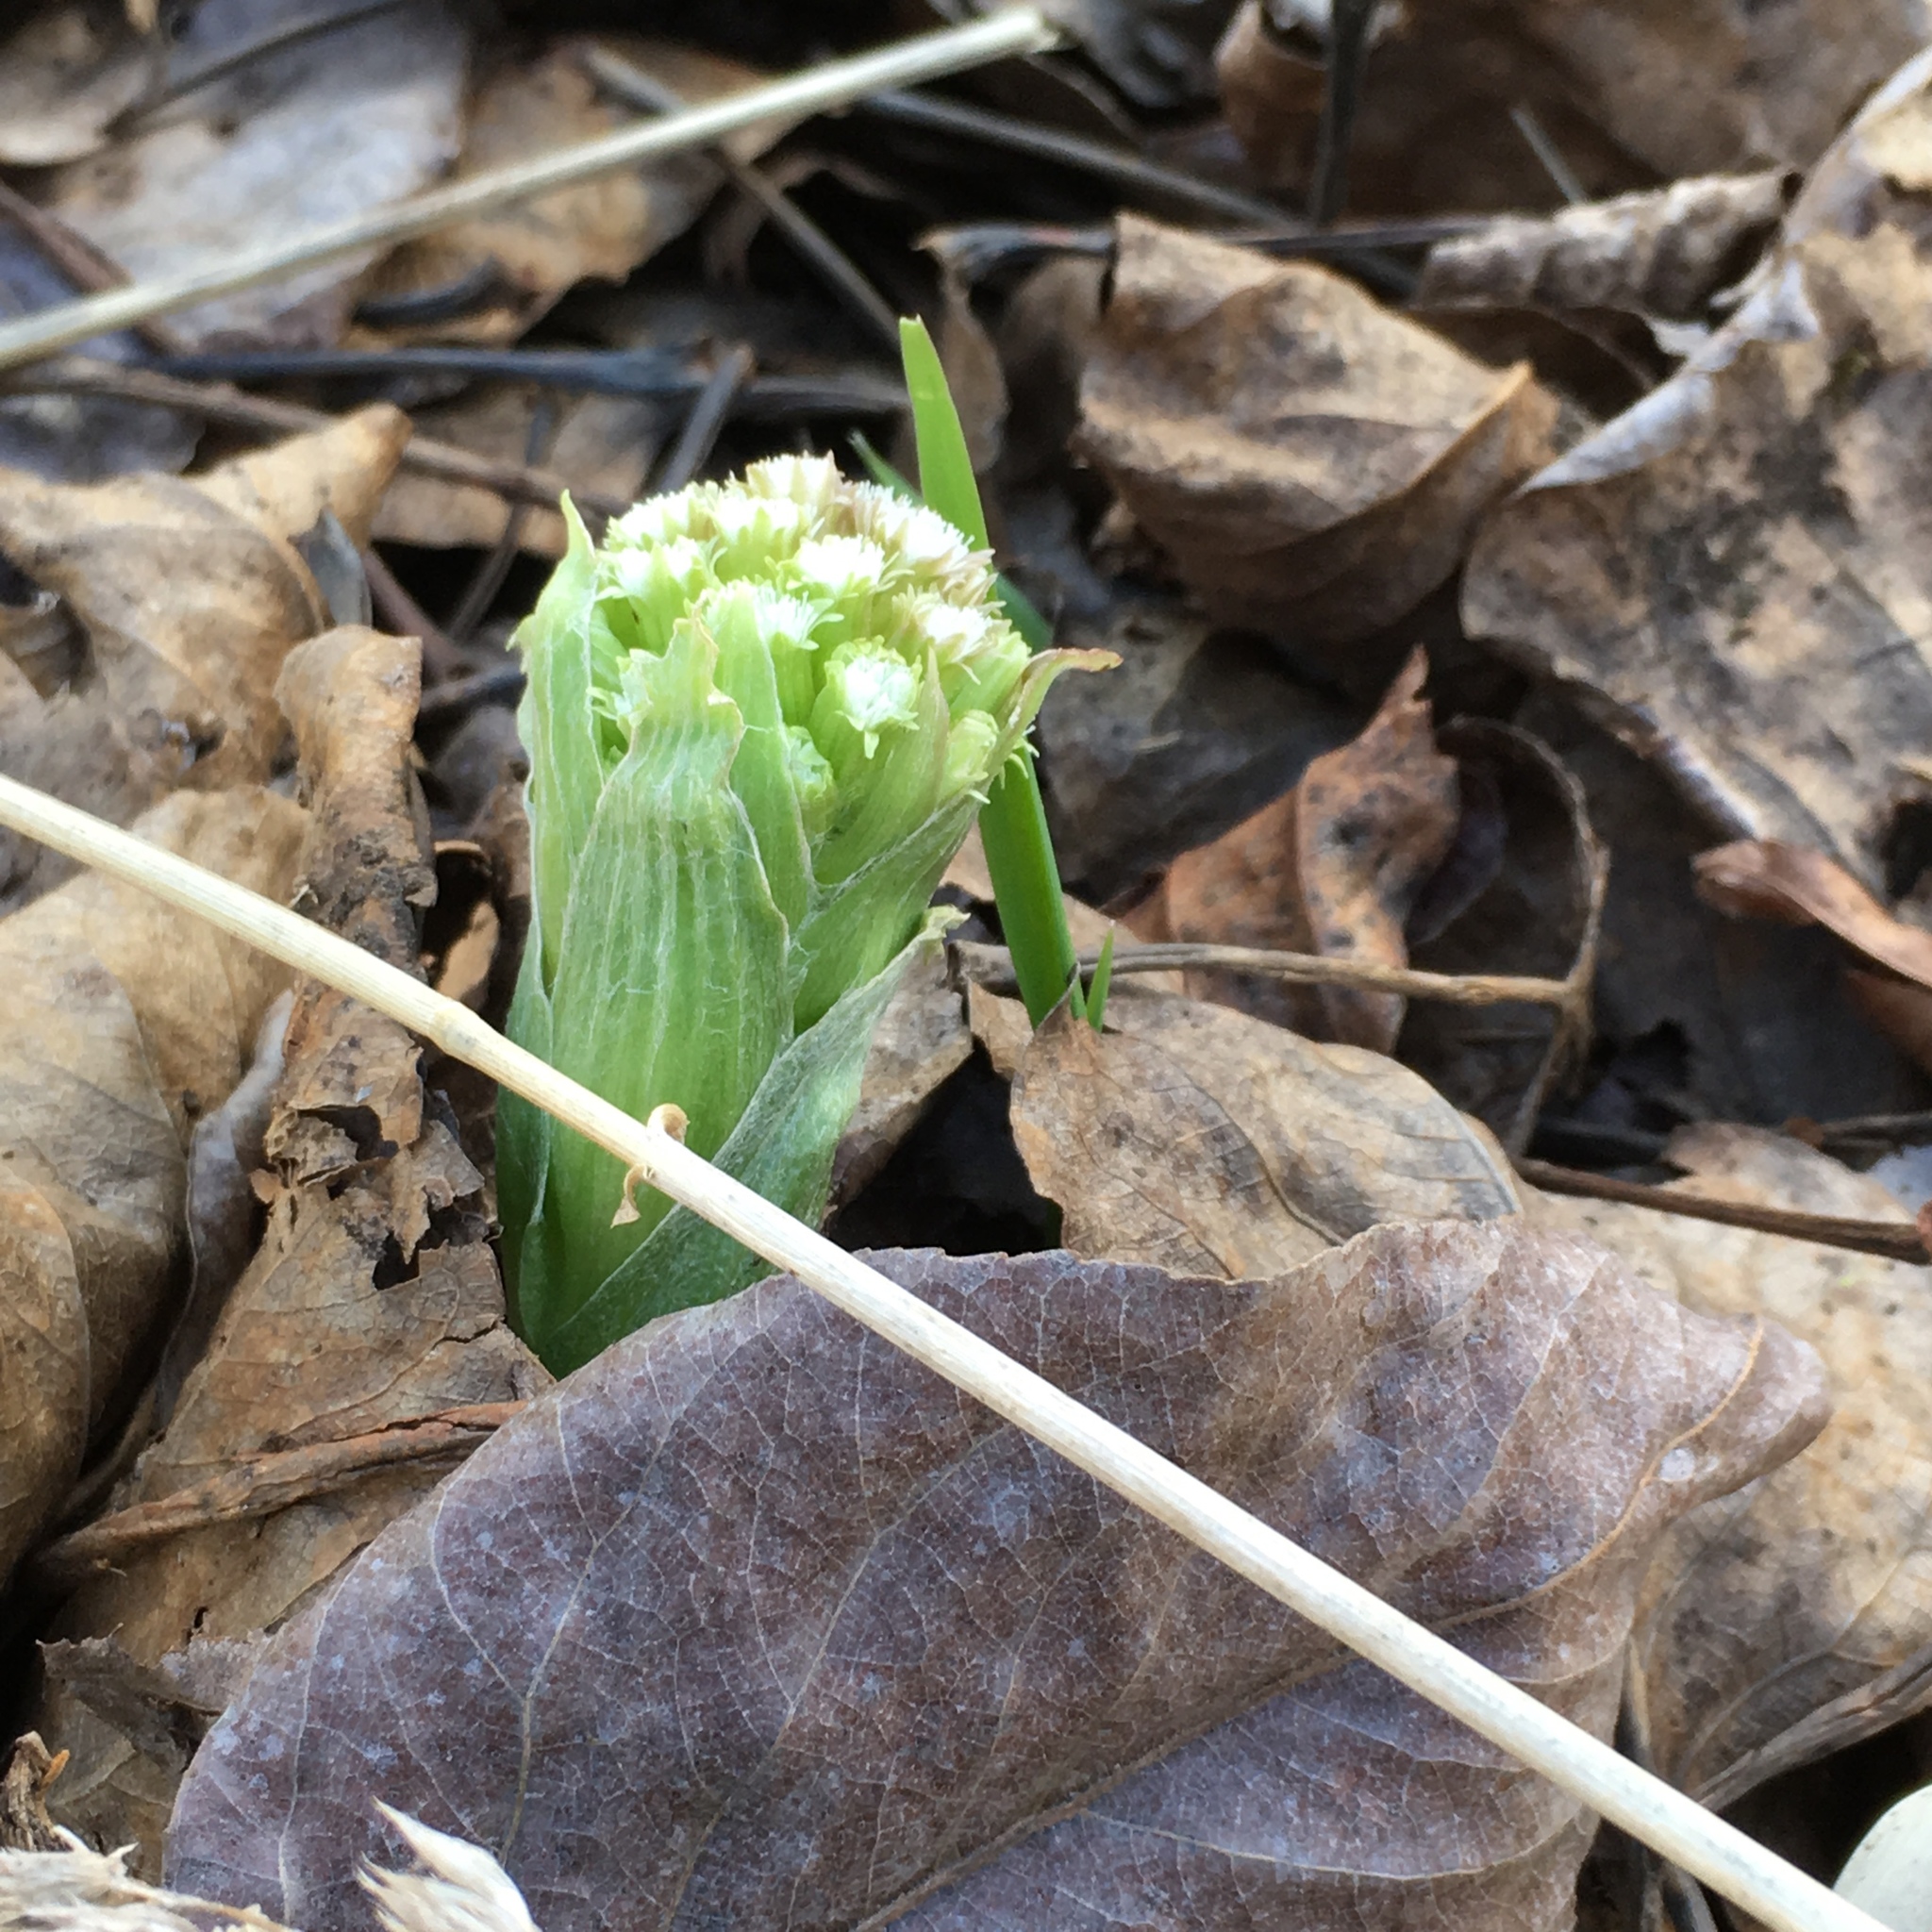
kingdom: Plantae
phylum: Tracheophyta
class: Magnoliopsida
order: Asterales
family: Asteraceae
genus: Petasites
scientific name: Petasites frigidus
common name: Arctic butterbur
